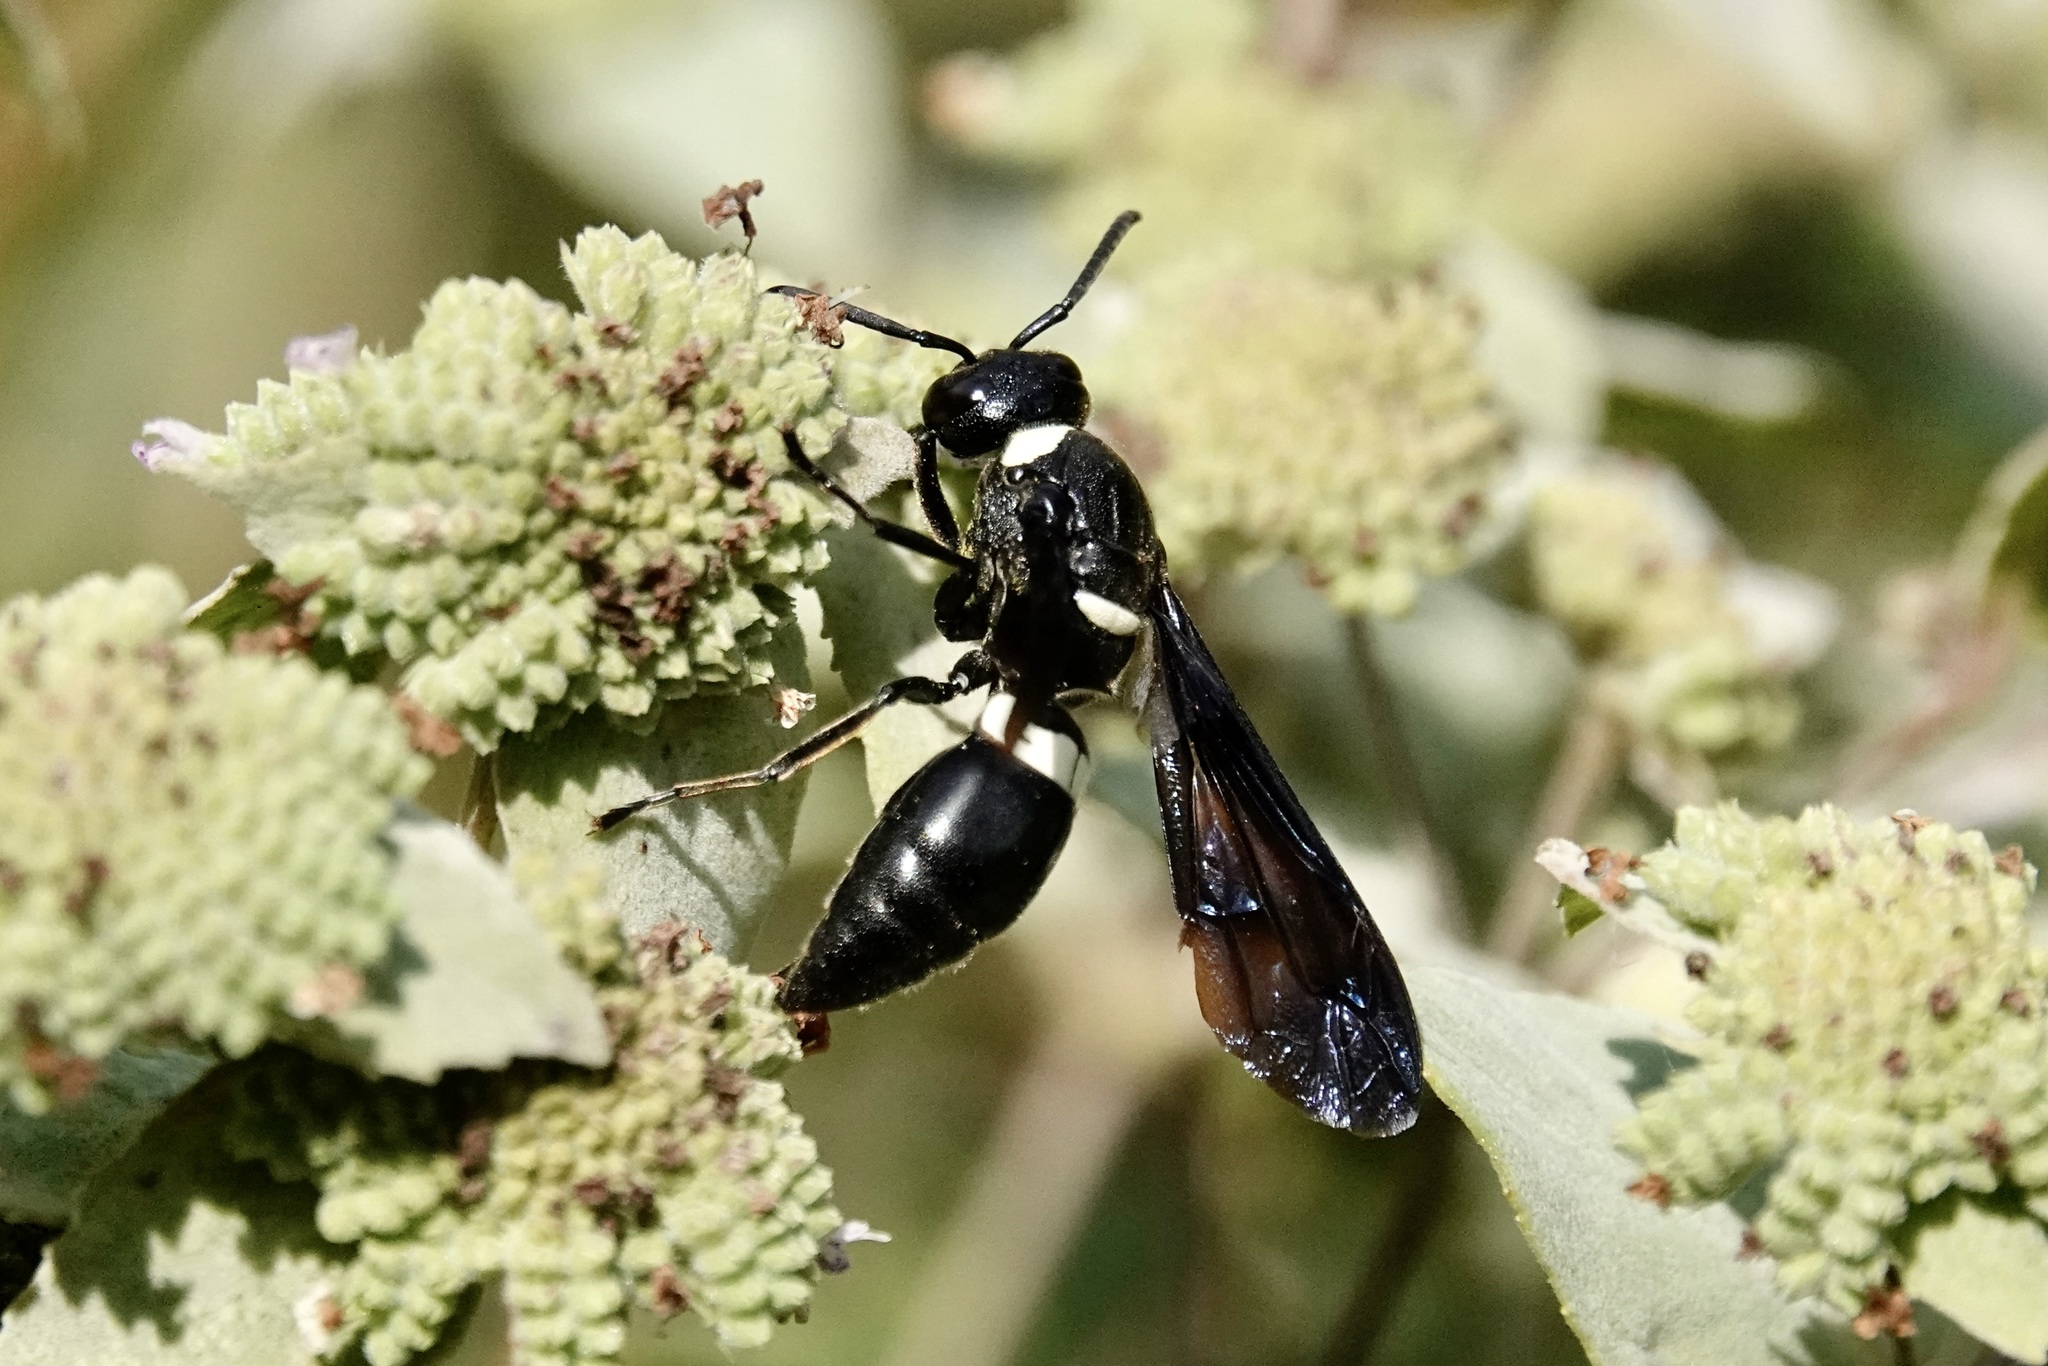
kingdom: Animalia
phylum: Arthropoda
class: Insecta
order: Hymenoptera
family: Eumenidae
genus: Monobia
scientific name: Monobia quadridens
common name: Four-toothed mason wasp
